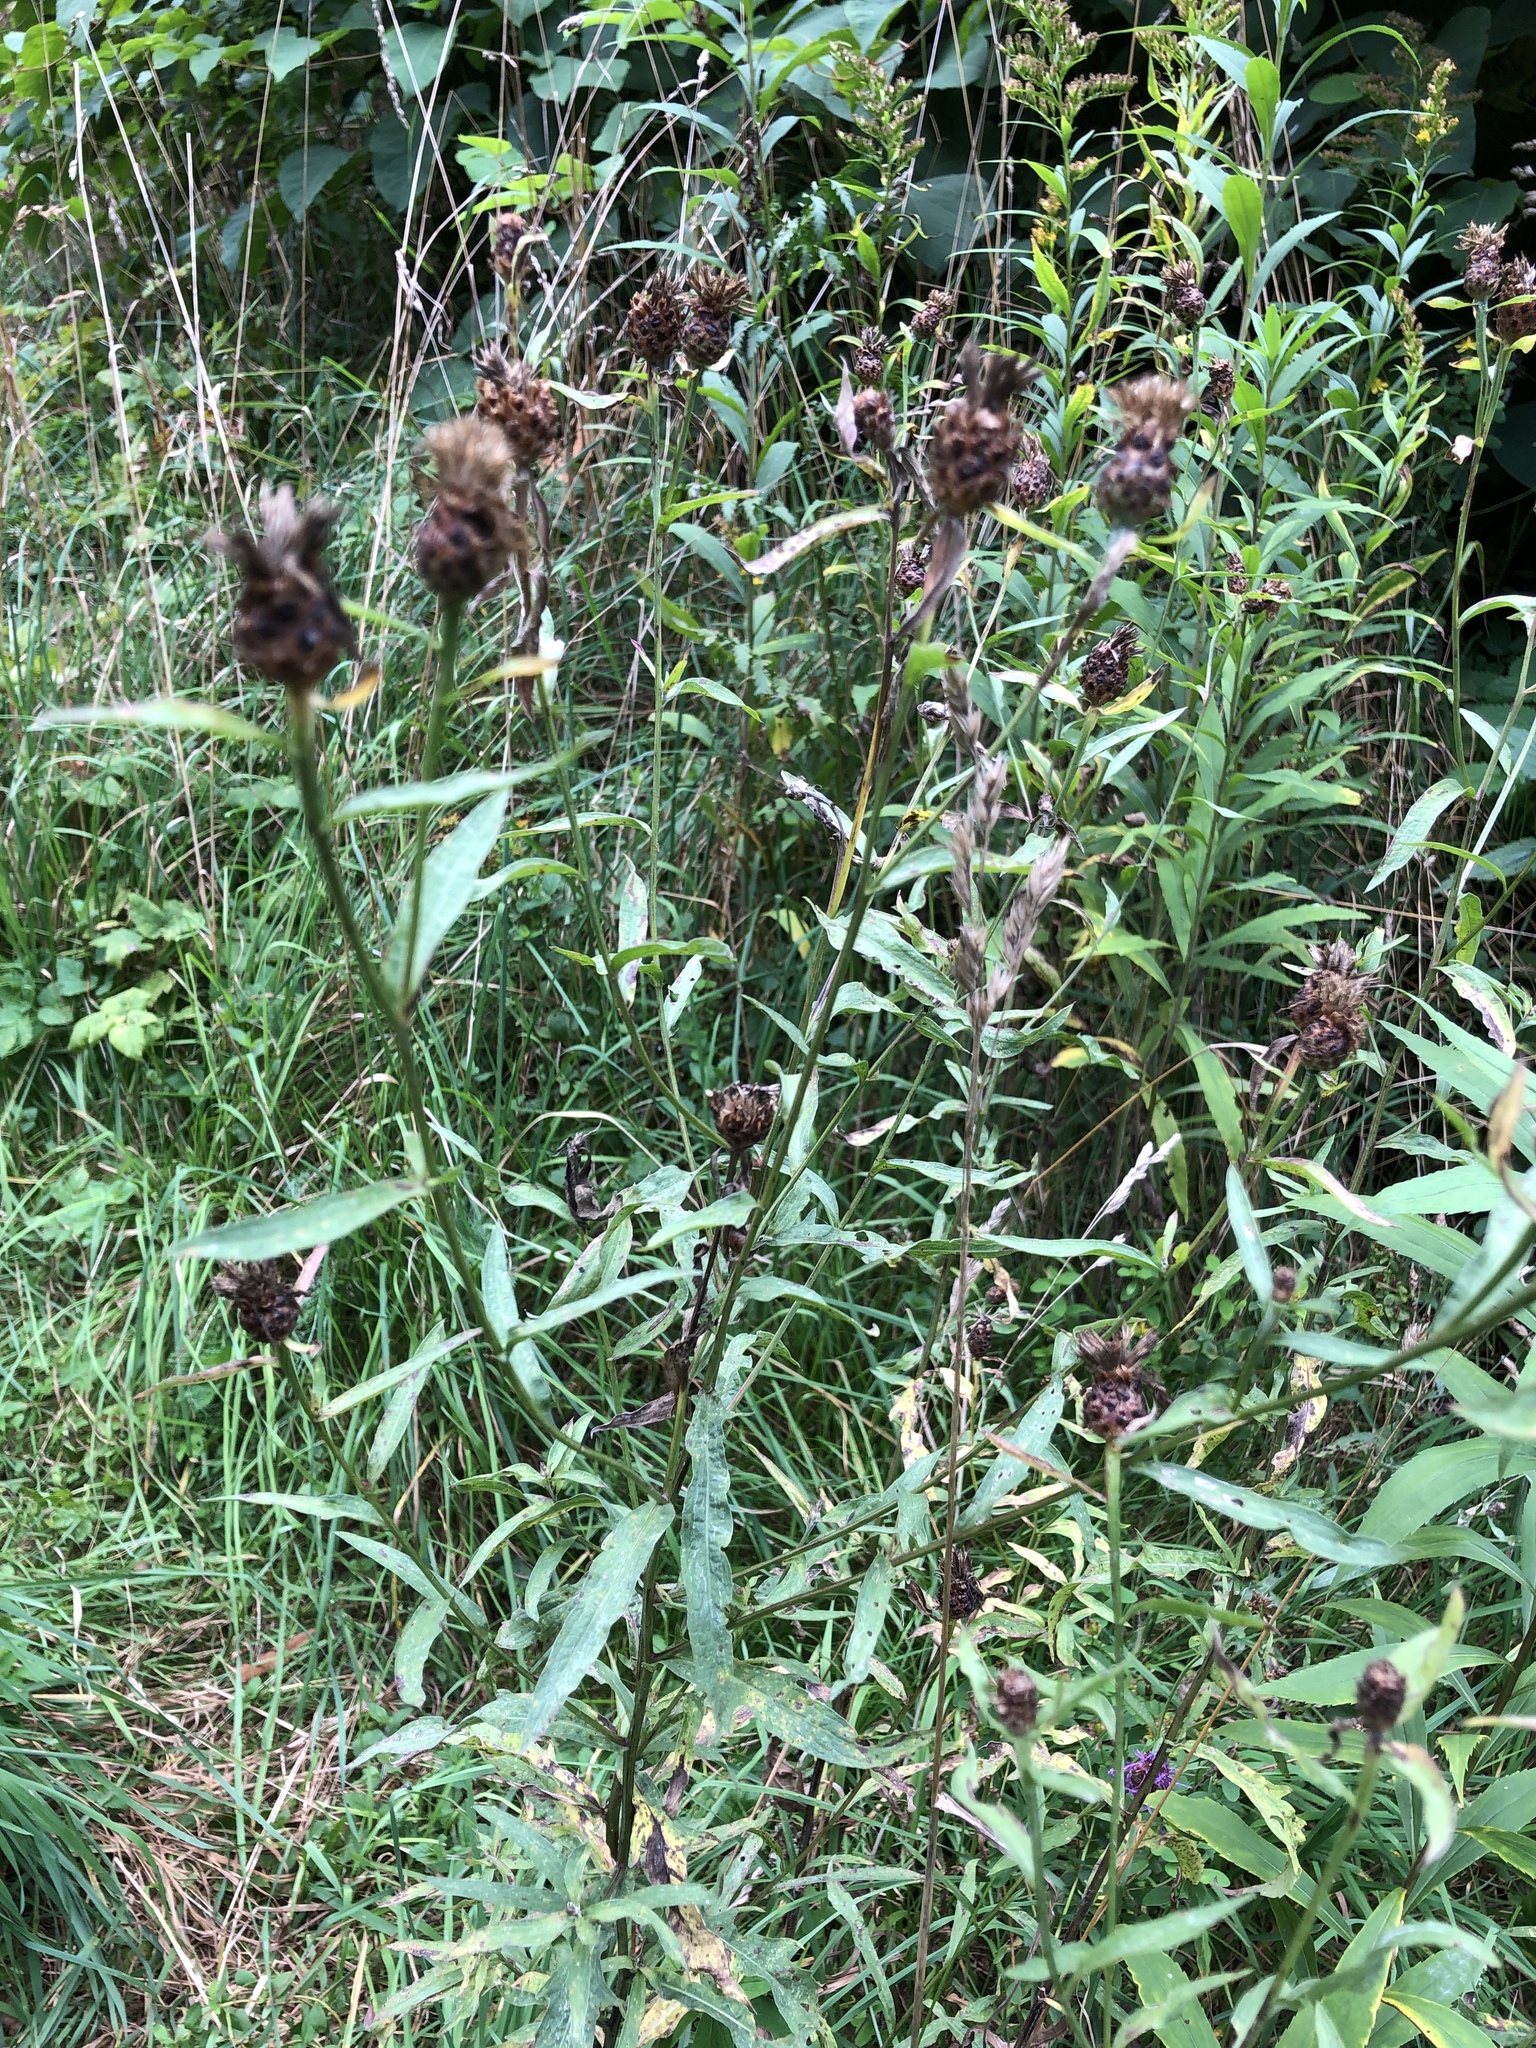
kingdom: Plantae
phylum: Tracheophyta
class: Magnoliopsida
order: Asterales
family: Asteraceae
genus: Centaurea
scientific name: Centaurea jacea
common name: Brown knapweed
